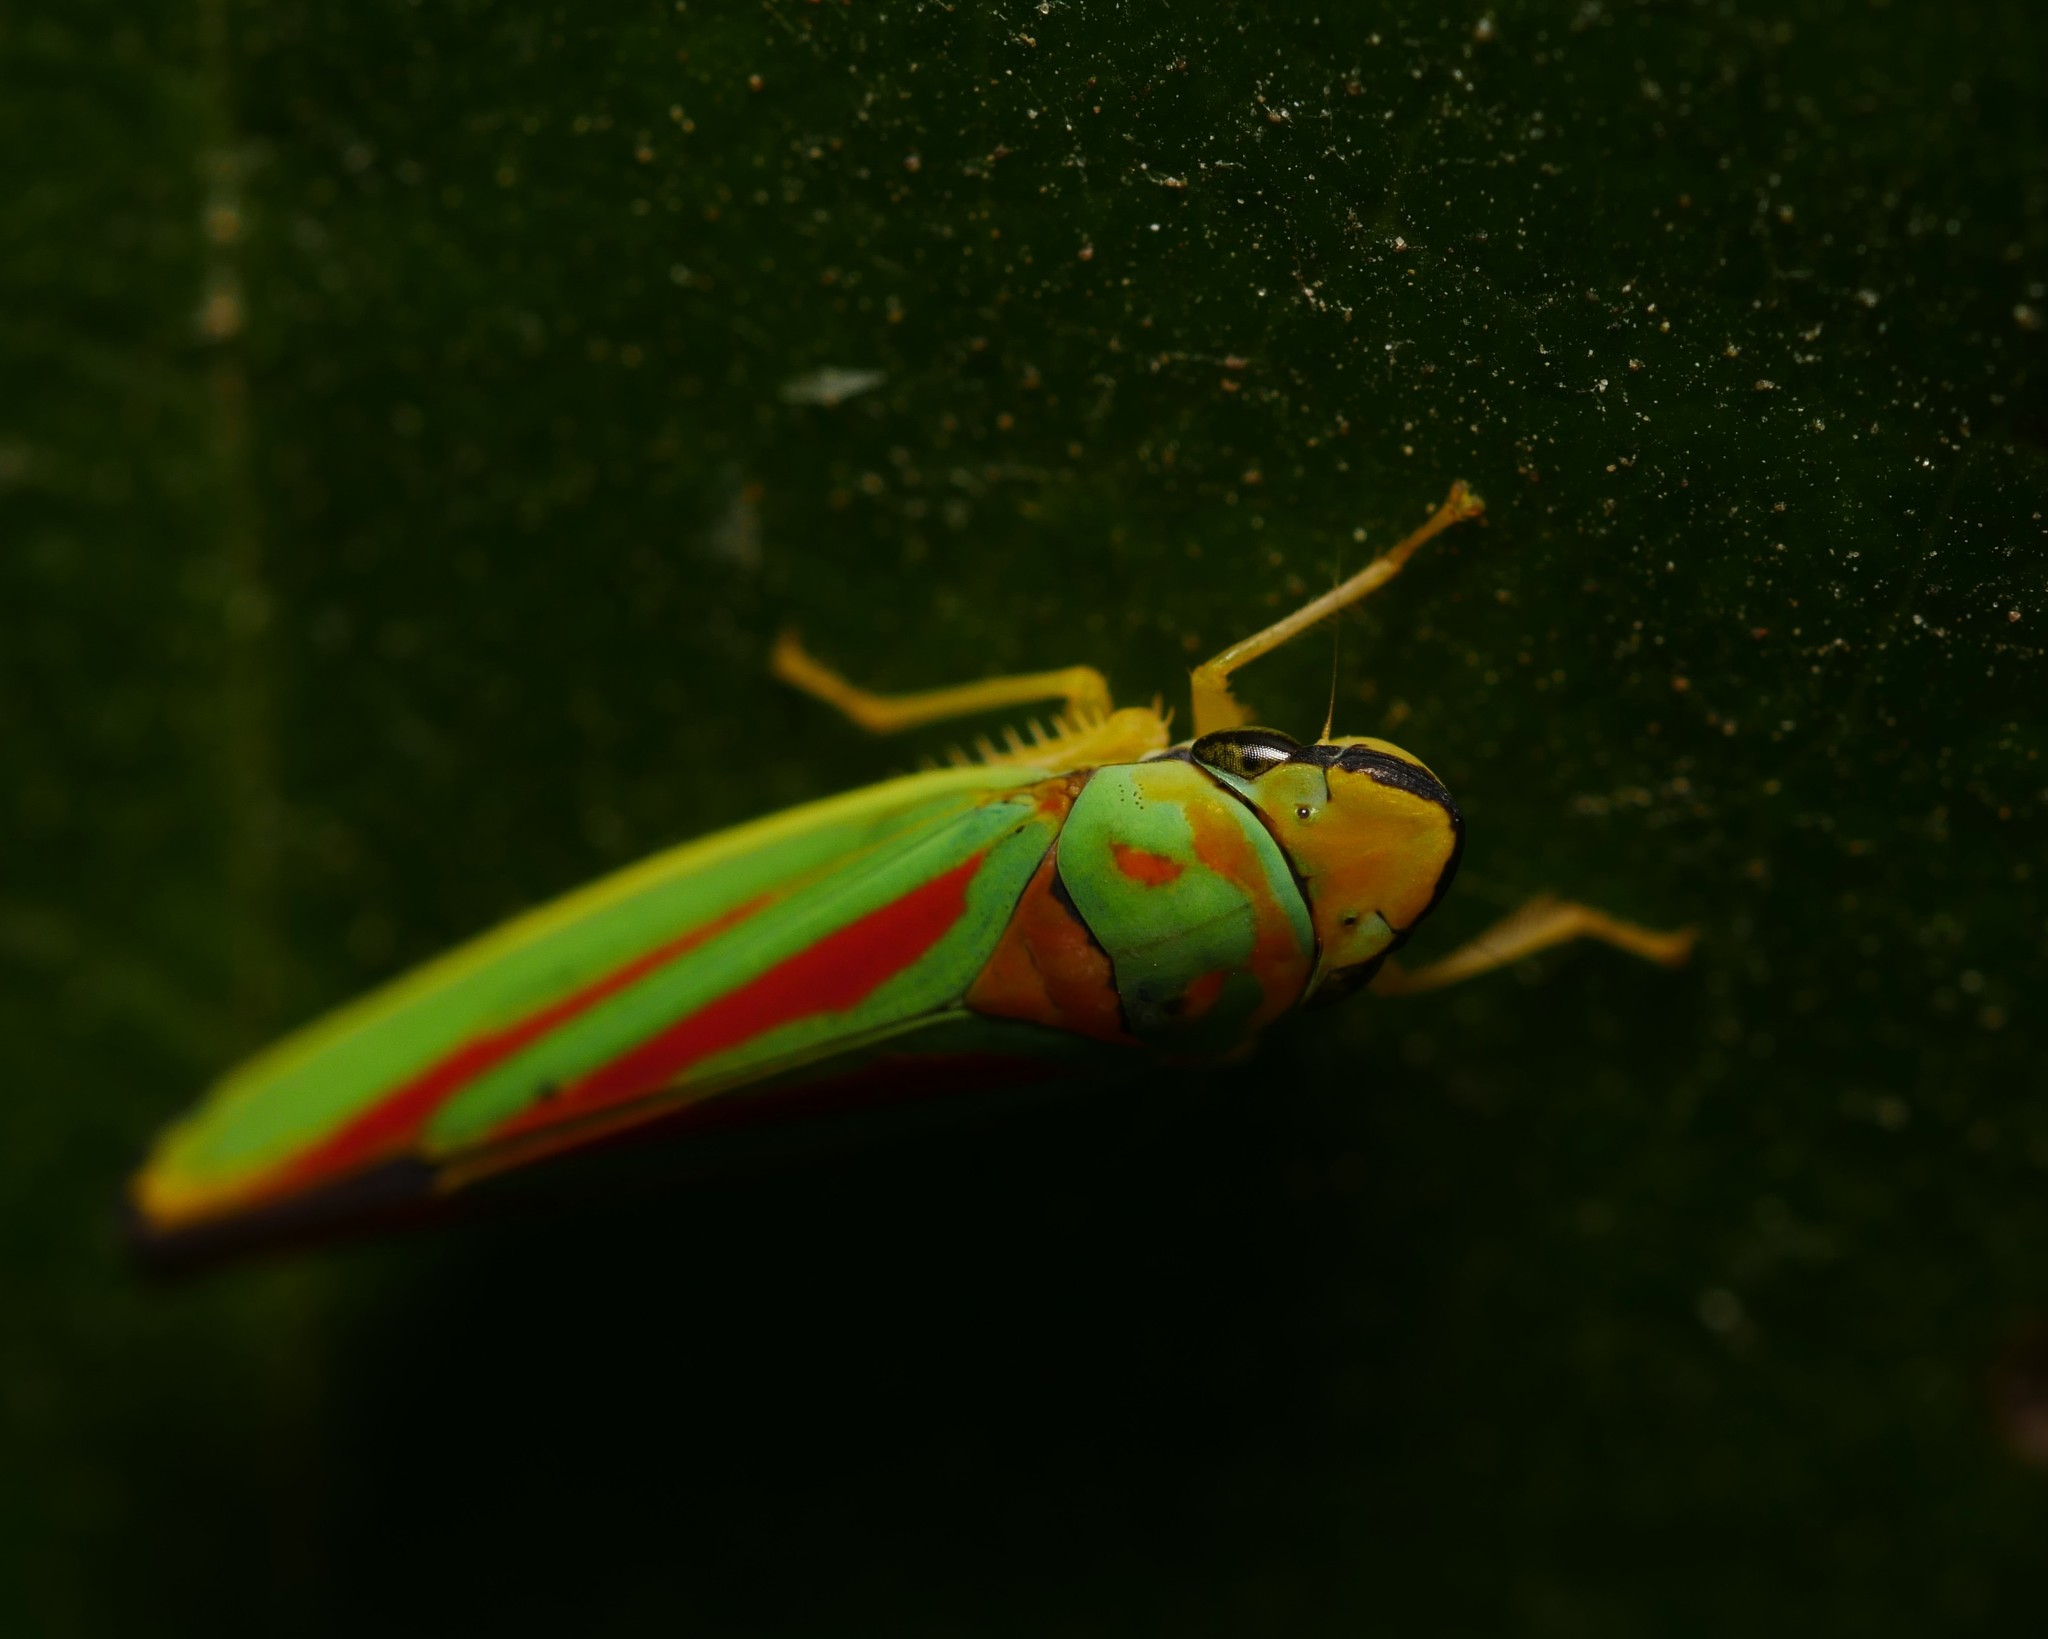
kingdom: Animalia
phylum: Arthropoda
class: Insecta
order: Hemiptera
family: Cicadellidae
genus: Graphocephala
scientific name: Graphocephala fennahi
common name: Rhododendron leafhopper
